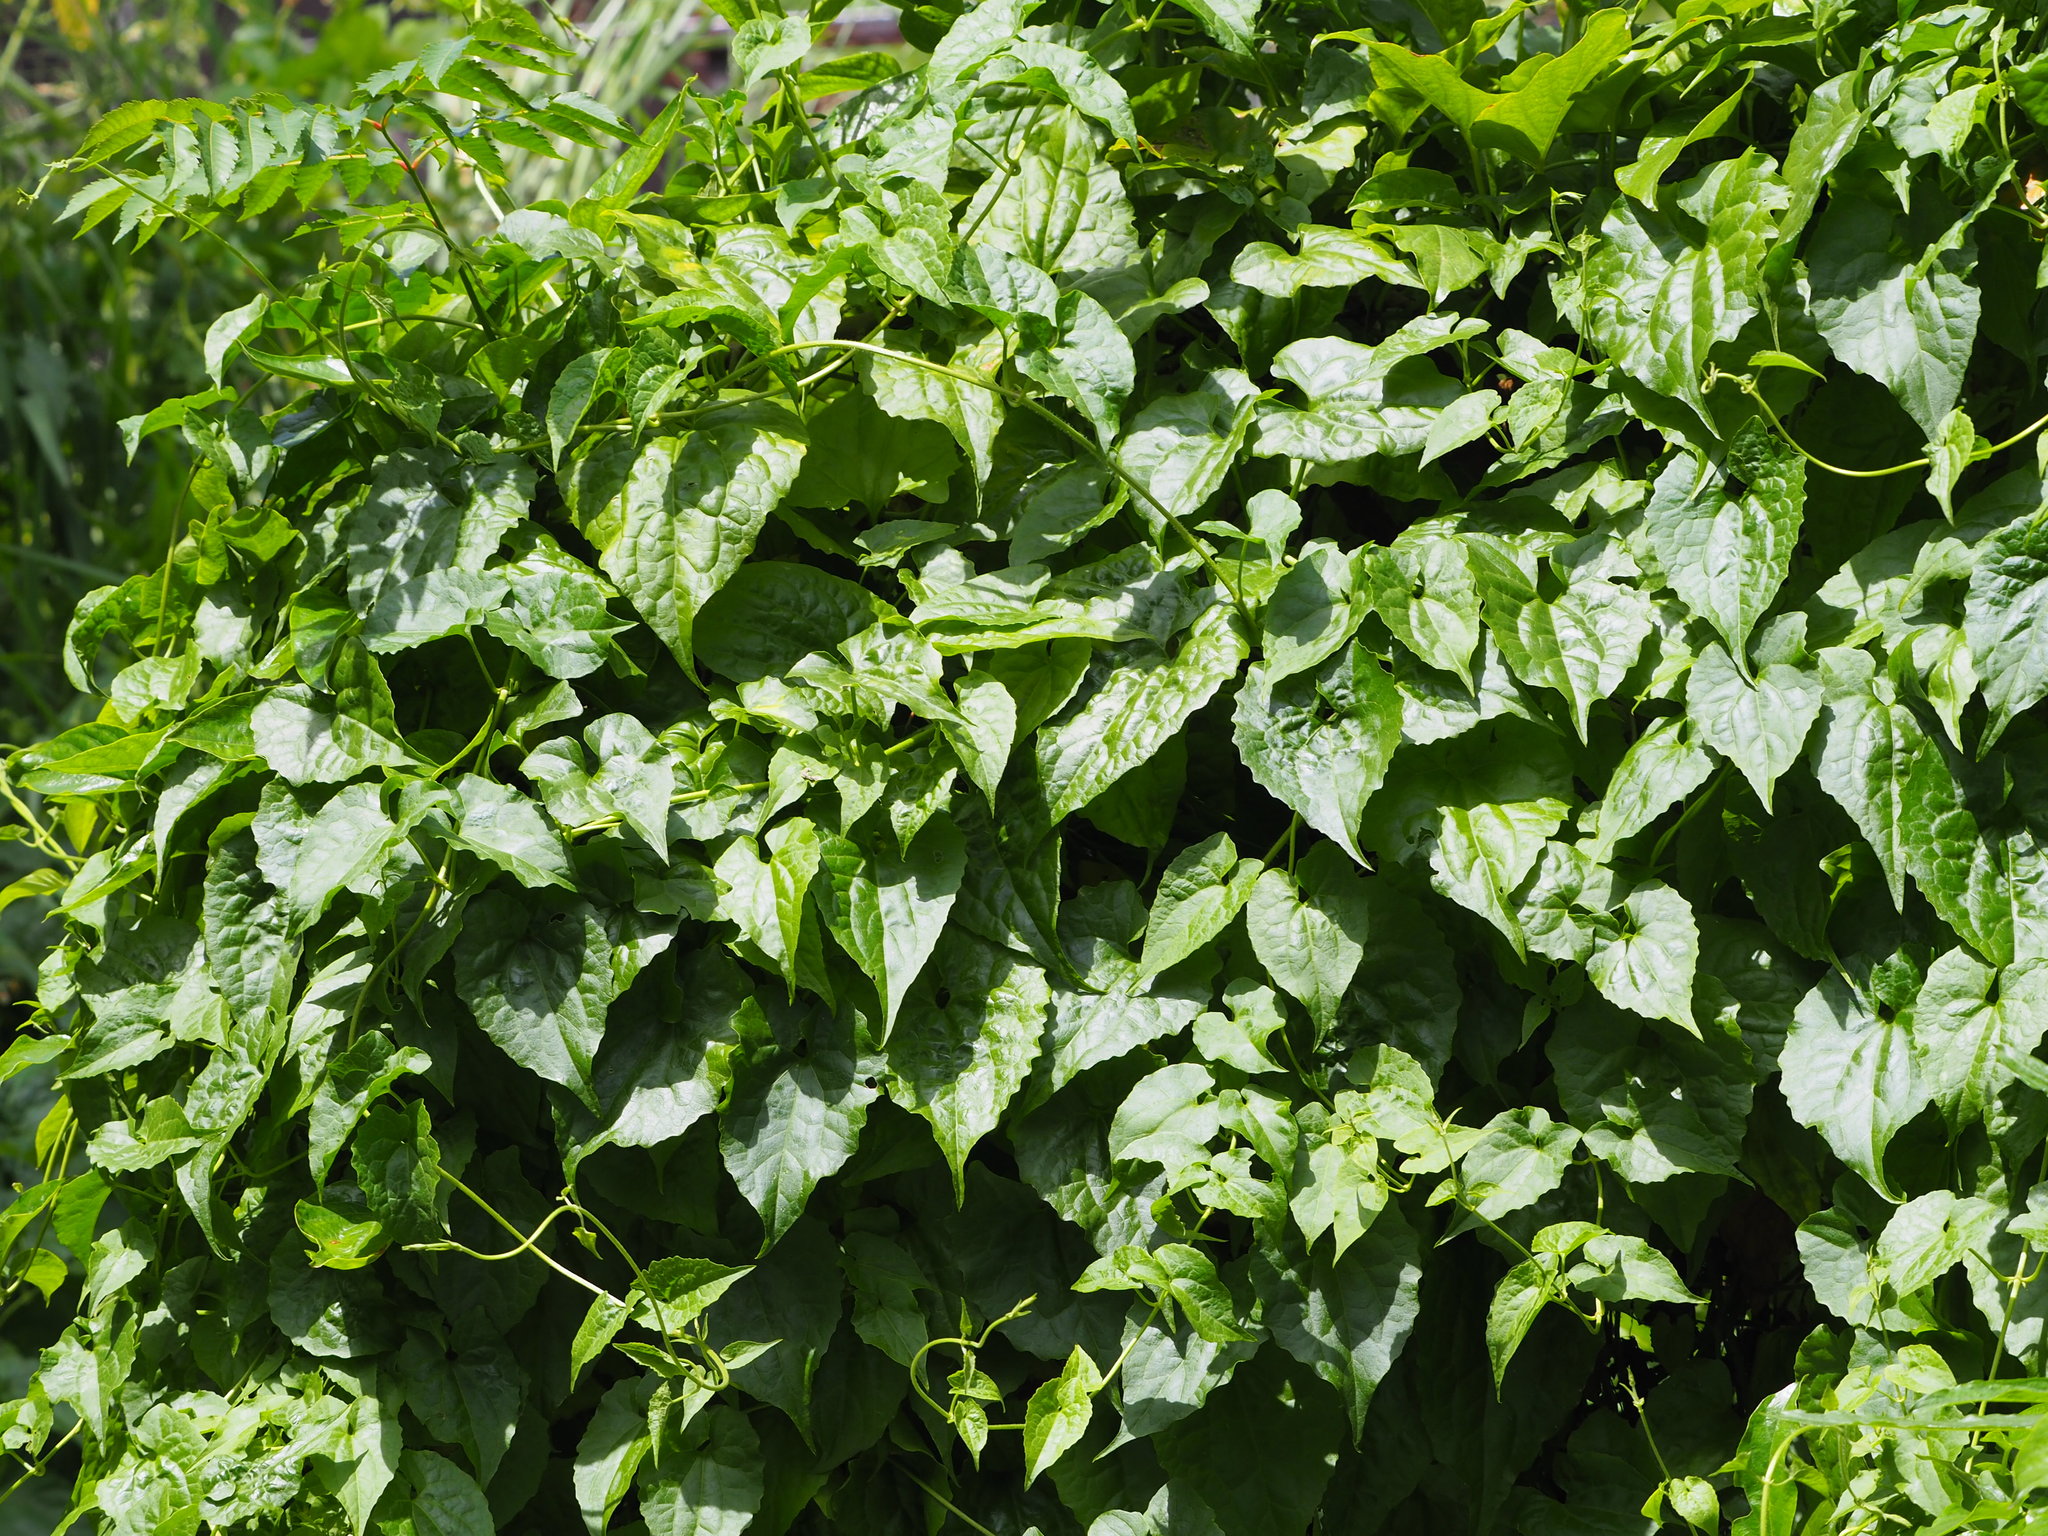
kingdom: Plantae
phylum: Tracheophyta
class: Magnoliopsida
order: Asterales
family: Asteraceae
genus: Mikania
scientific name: Mikania micrantha
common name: Mile-a-minute
